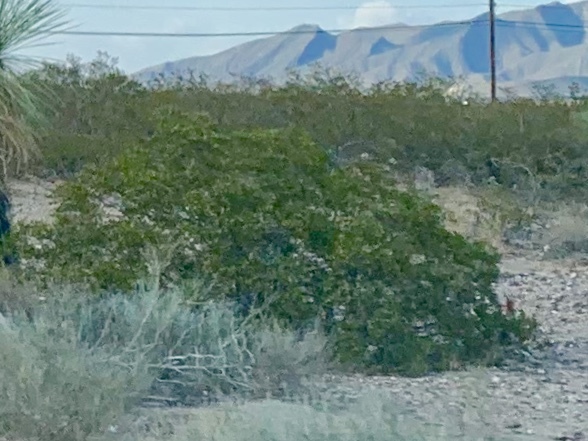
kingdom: Plantae
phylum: Tracheophyta
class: Magnoliopsida
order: Zygophyllales
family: Zygophyllaceae
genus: Larrea
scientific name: Larrea tridentata
